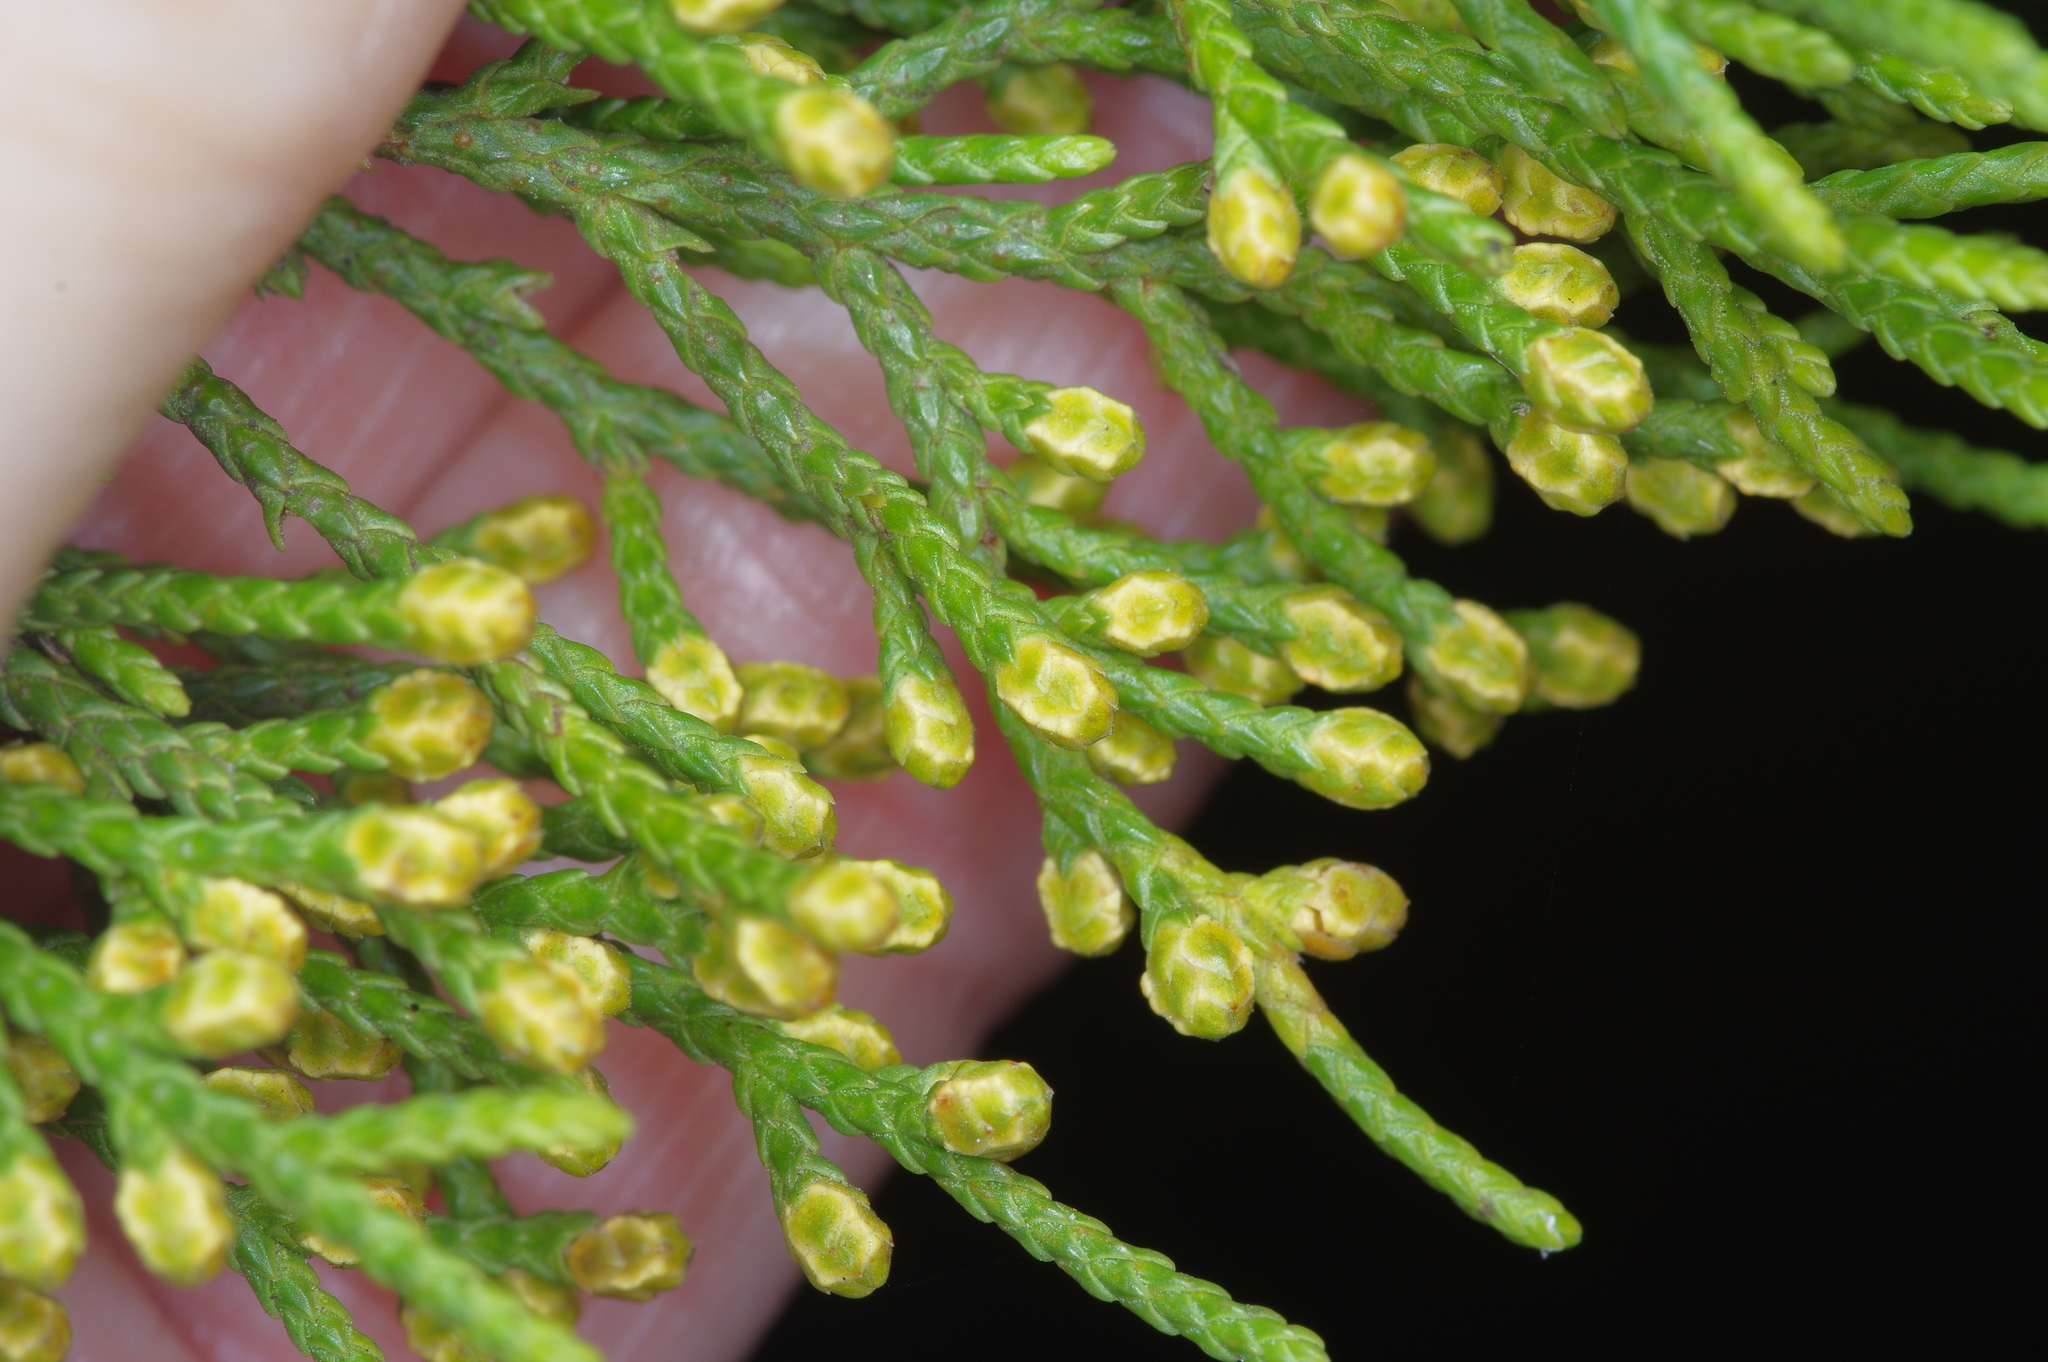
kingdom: Plantae
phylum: Tracheophyta
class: Pinopsida
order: Pinales
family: Cupressaceae
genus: Juniperus
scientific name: Juniperus ashei
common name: Mexican juniper
